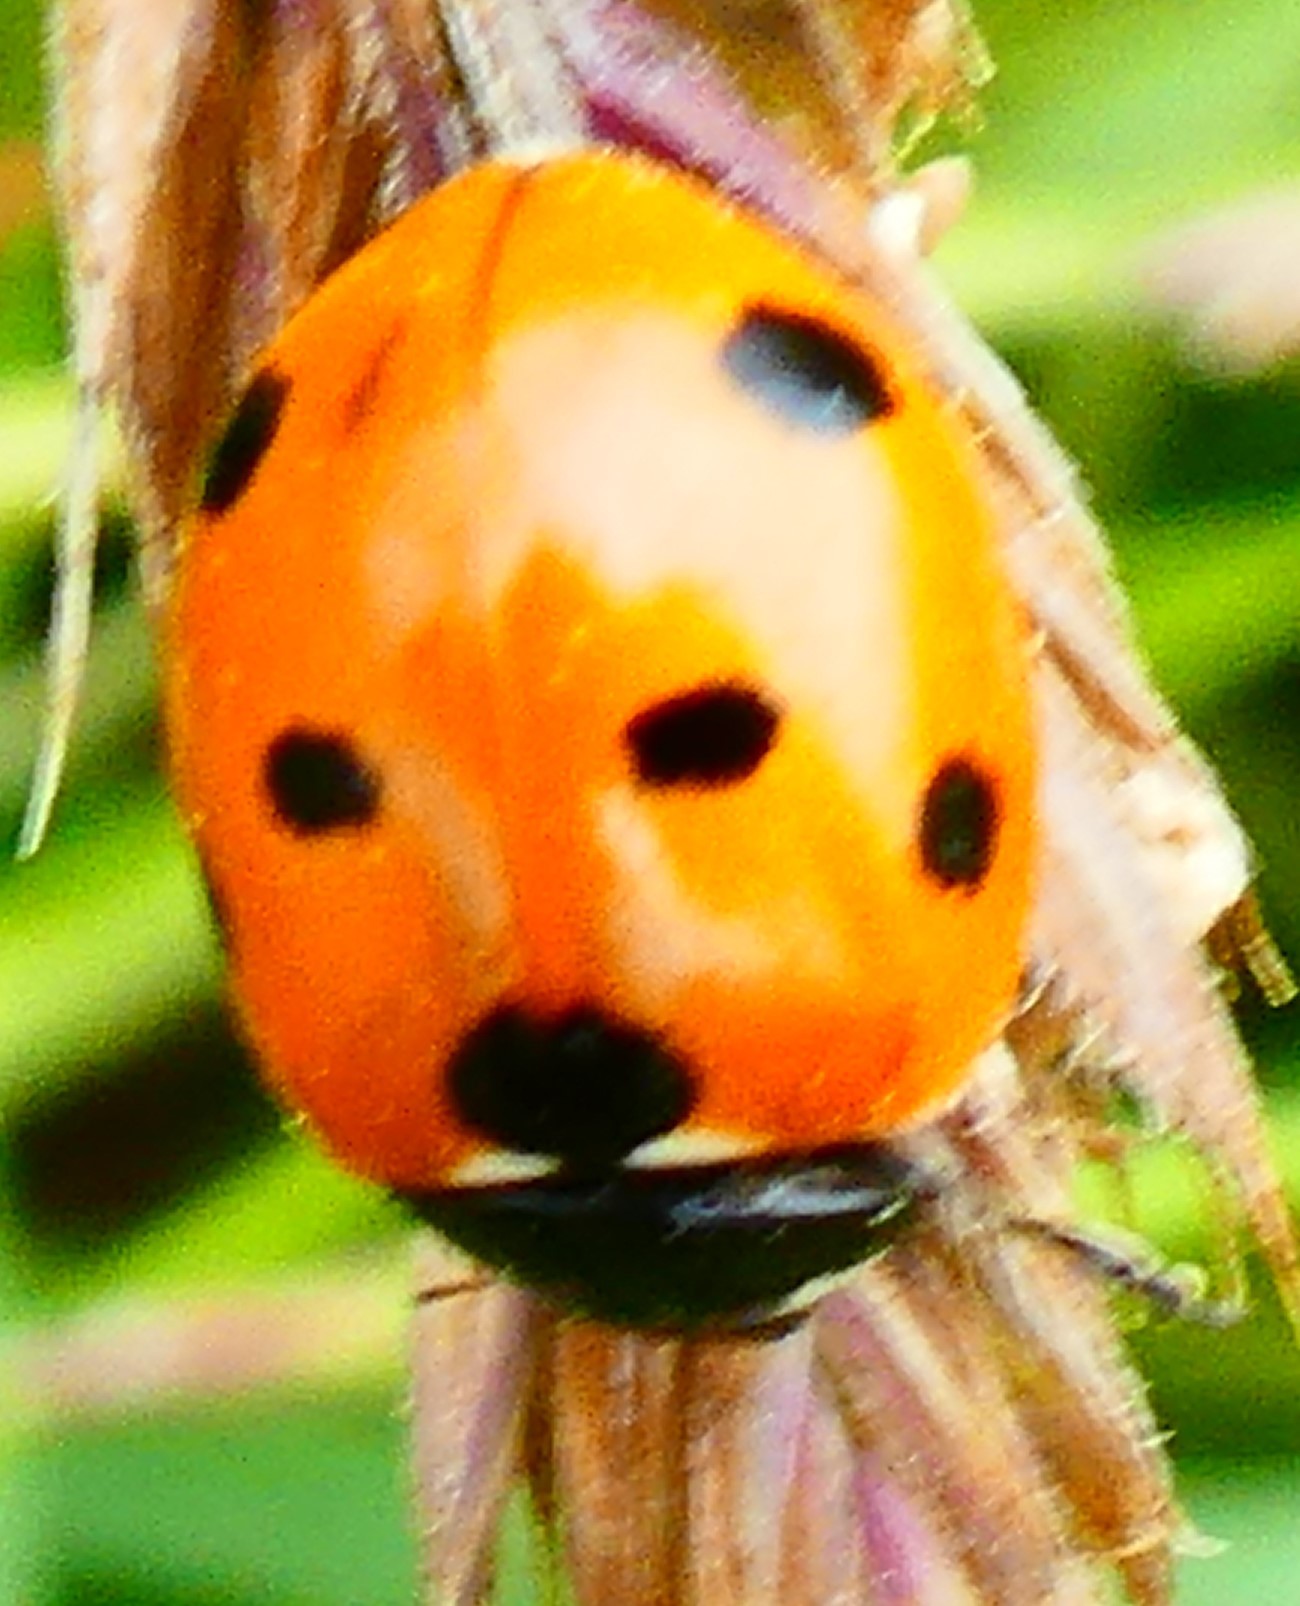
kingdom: Animalia
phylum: Arthropoda
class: Insecta
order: Coleoptera
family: Coccinellidae
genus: Coccinella
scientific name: Coccinella septempunctata
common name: Sevenspotted lady beetle
